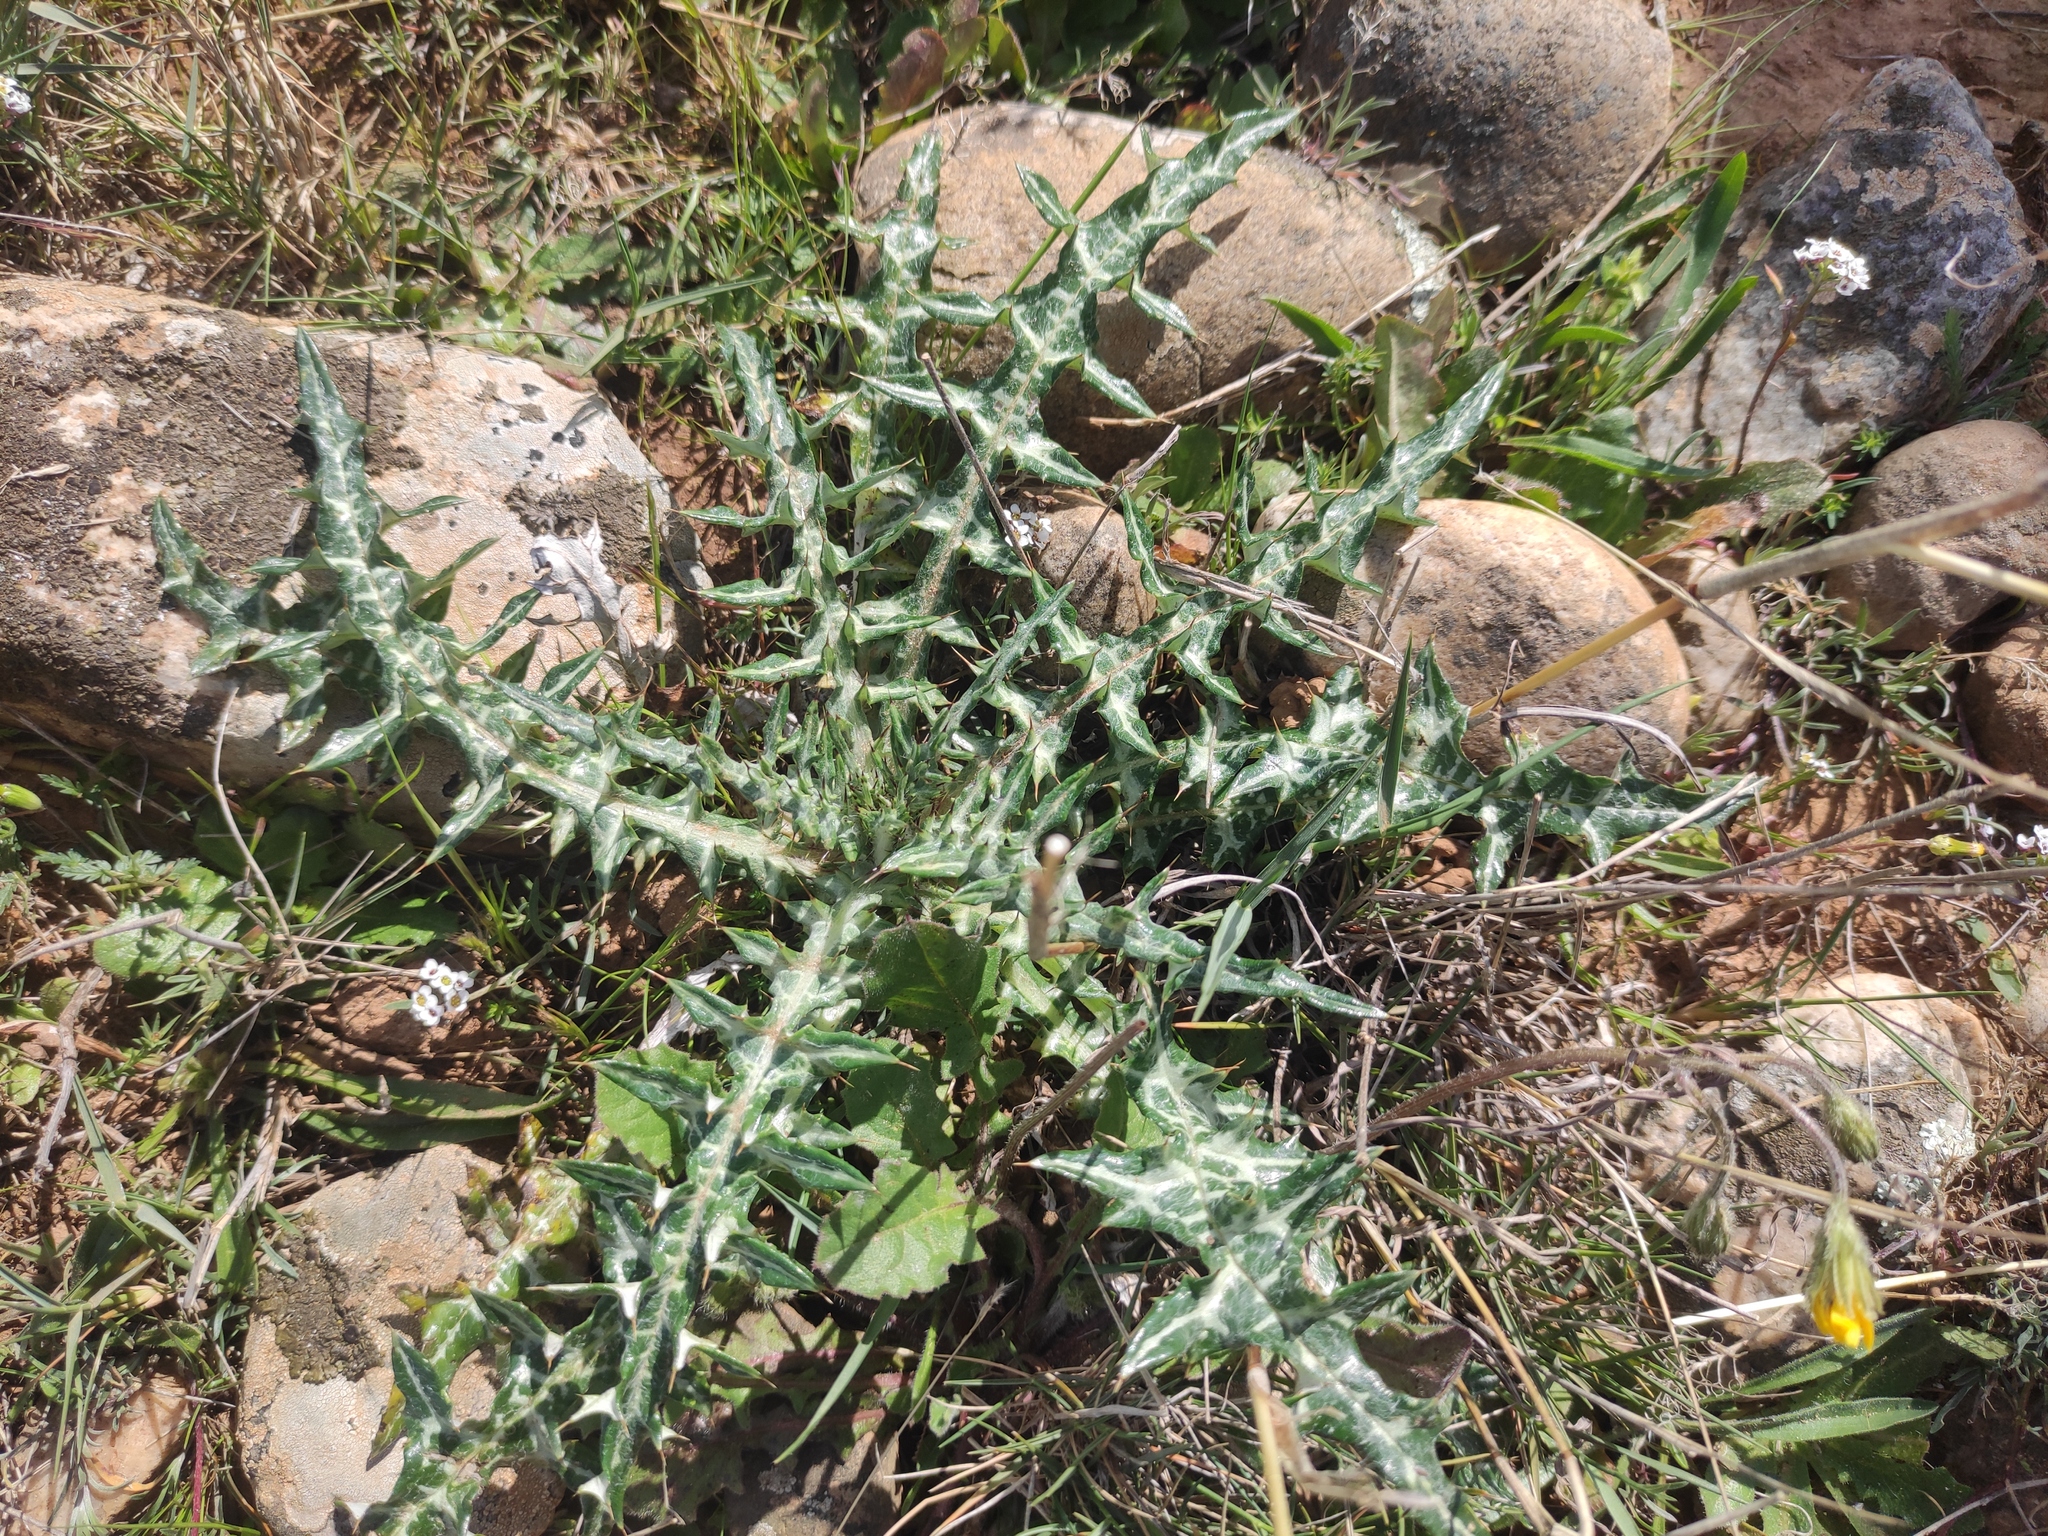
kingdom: Plantae
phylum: Tracheophyta
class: Magnoliopsida
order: Asterales
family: Asteraceae
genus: Galactites
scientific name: Galactites tomentosa
